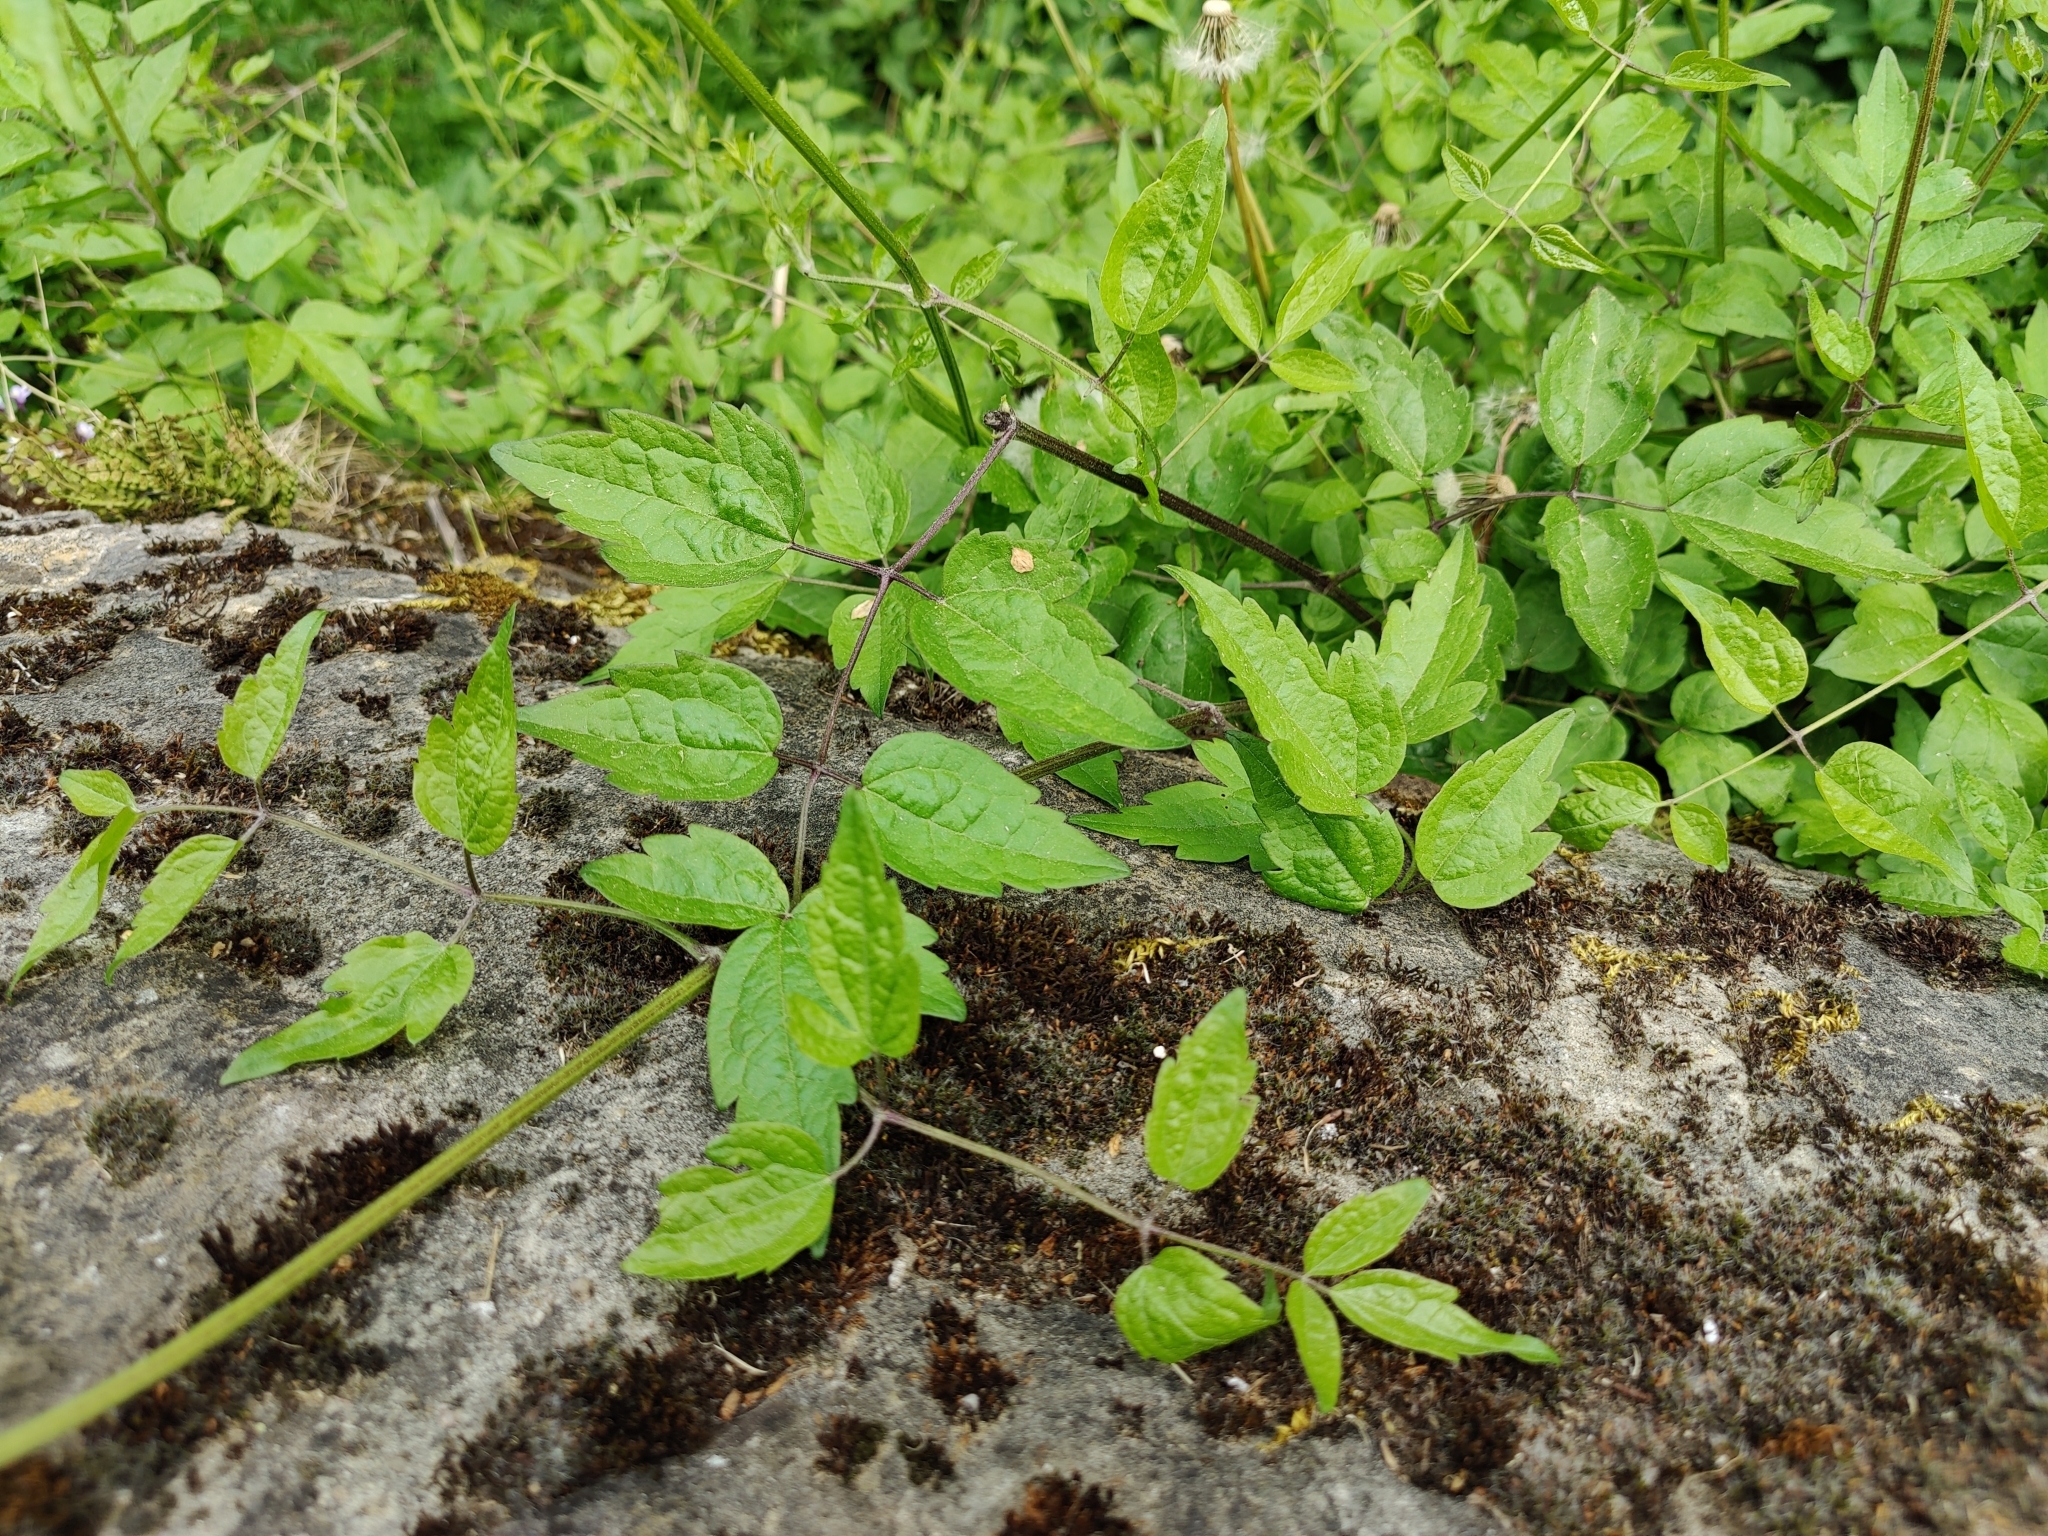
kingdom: Plantae
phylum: Tracheophyta
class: Magnoliopsida
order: Ranunculales
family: Ranunculaceae
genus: Clematis
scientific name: Clematis vitalba
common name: Evergreen clematis
